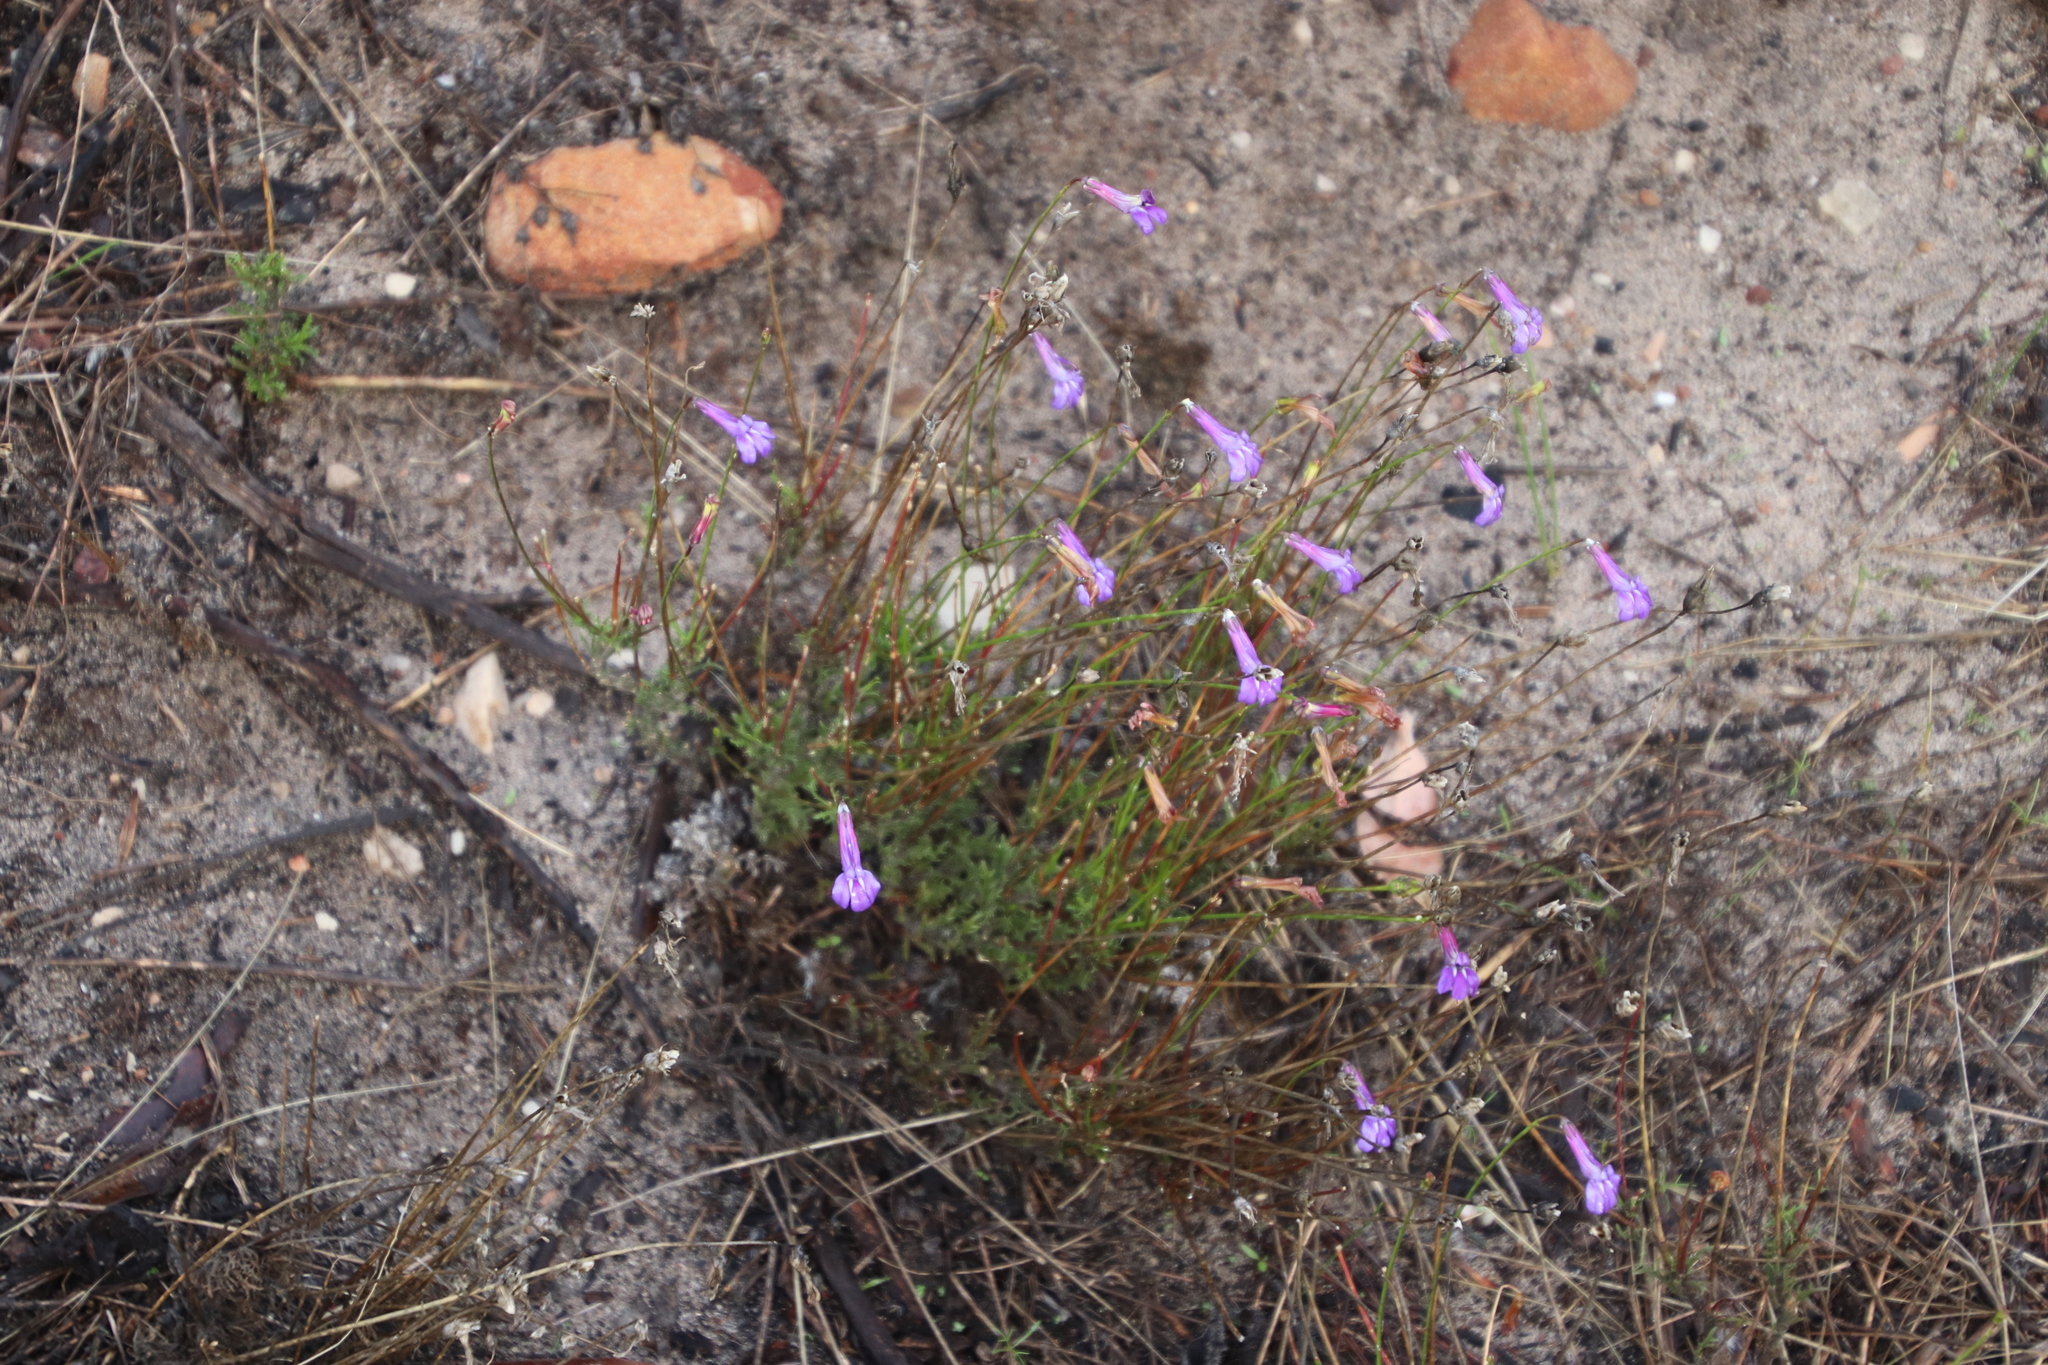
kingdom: Plantae
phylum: Tracheophyta
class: Magnoliopsida
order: Asterales
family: Campanulaceae
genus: Lobelia
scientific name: Lobelia coronopifolia
